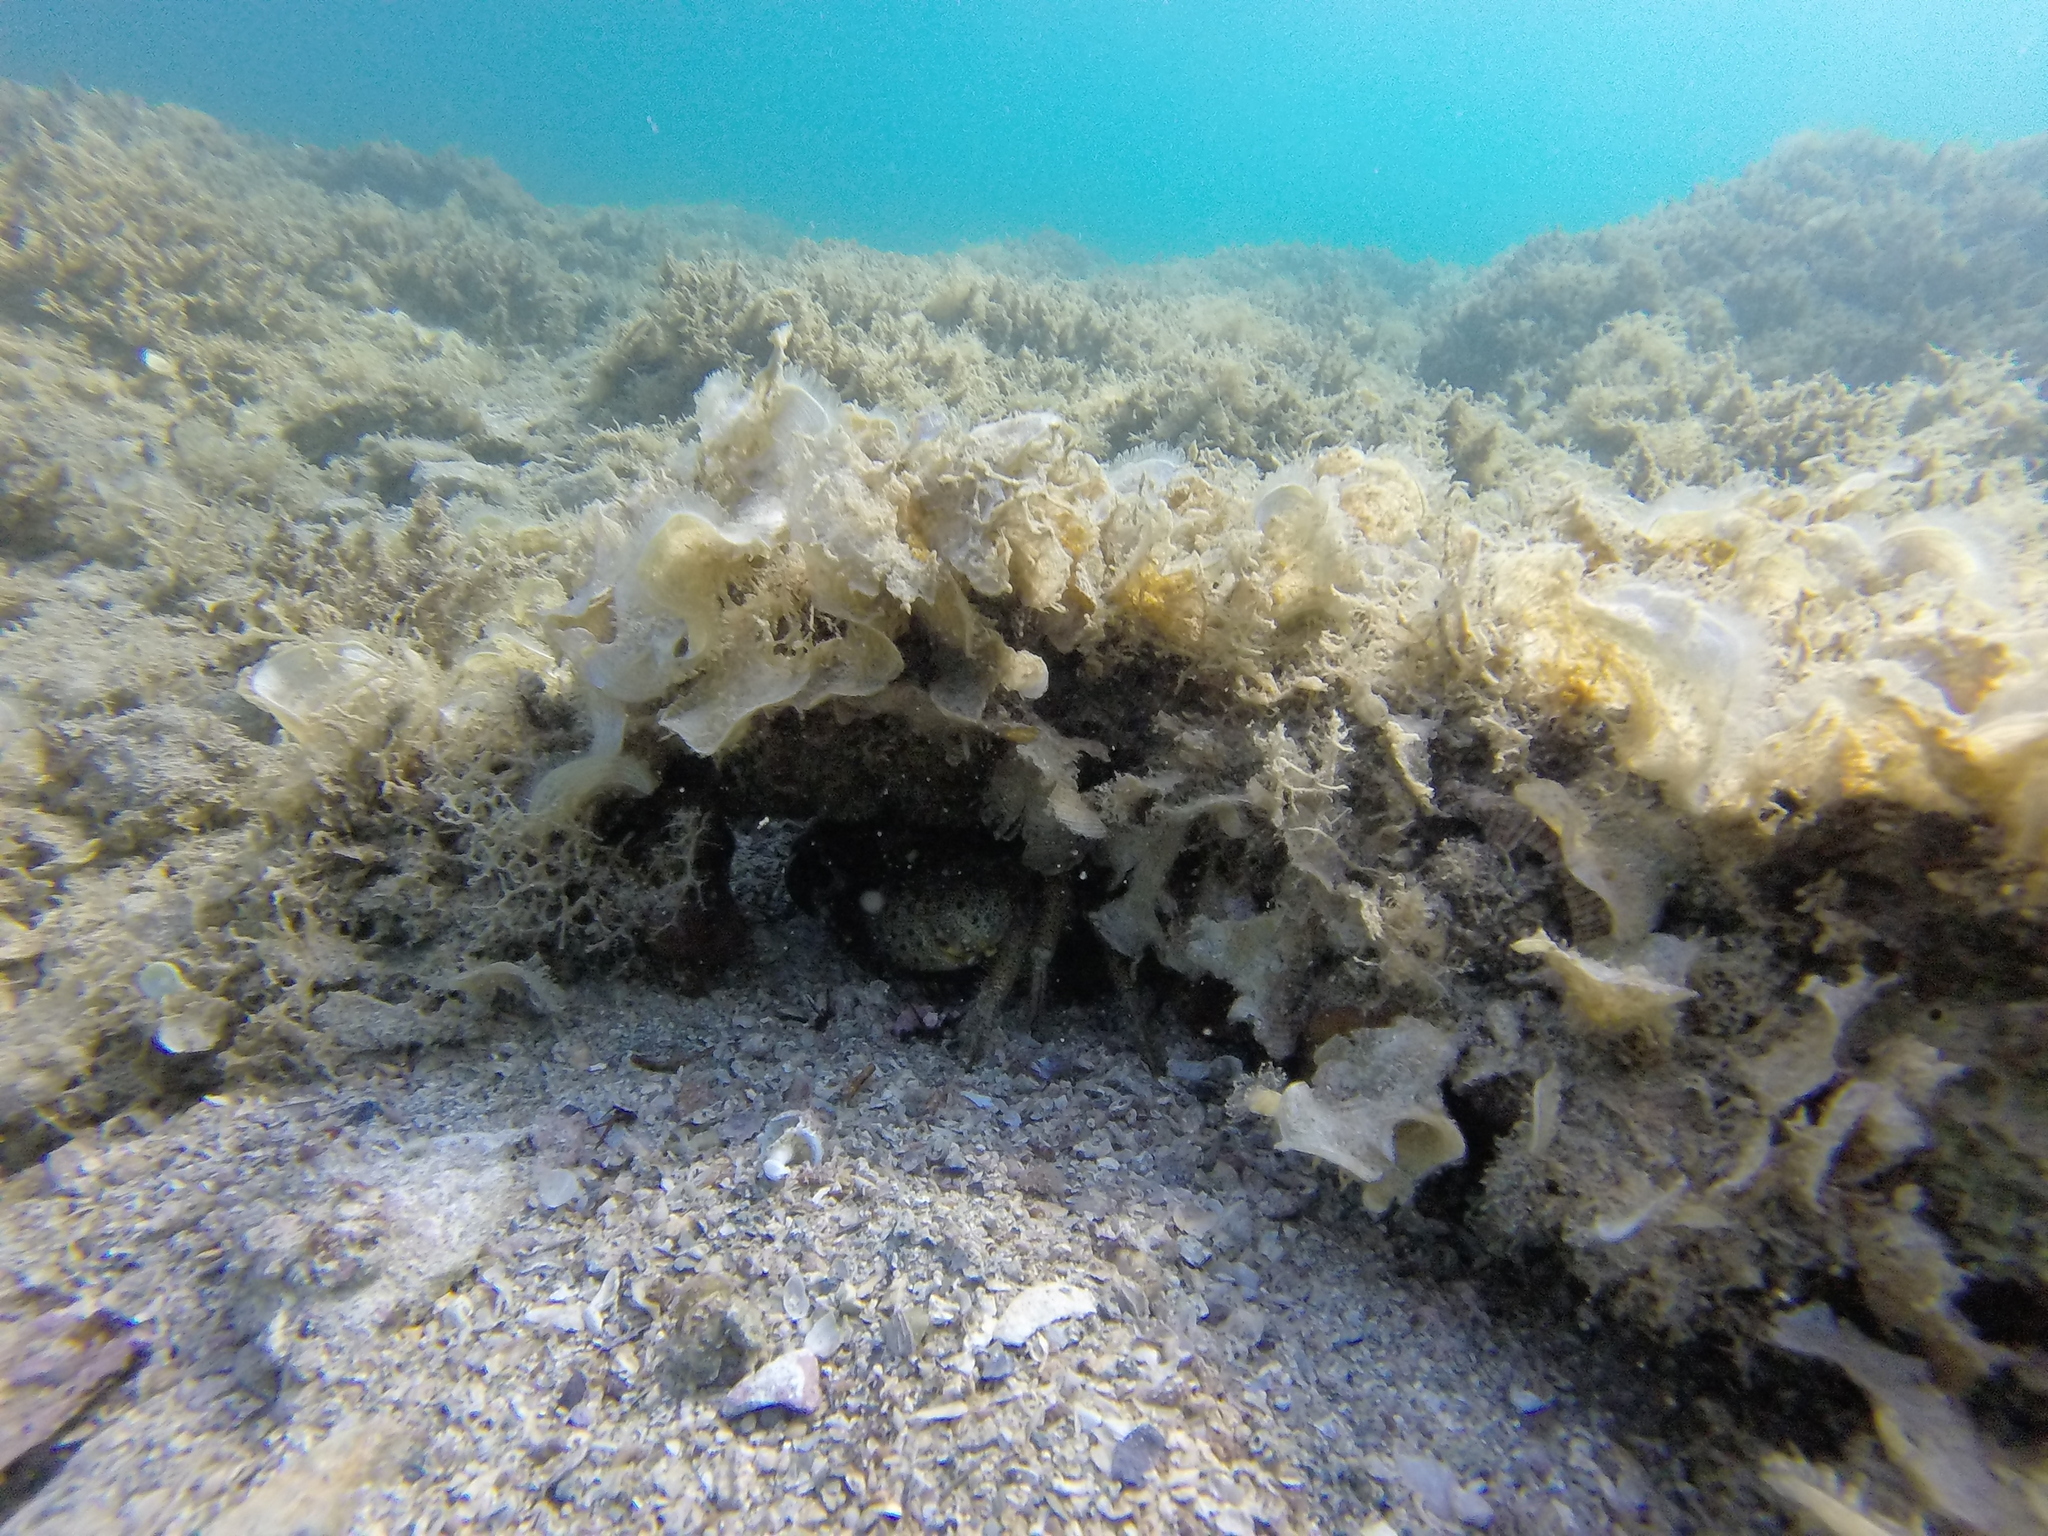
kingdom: Animalia
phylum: Arthropoda
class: Malacostraca
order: Decapoda
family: Eriphiidae
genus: Eriphia
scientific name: Eriphia verrucosa
